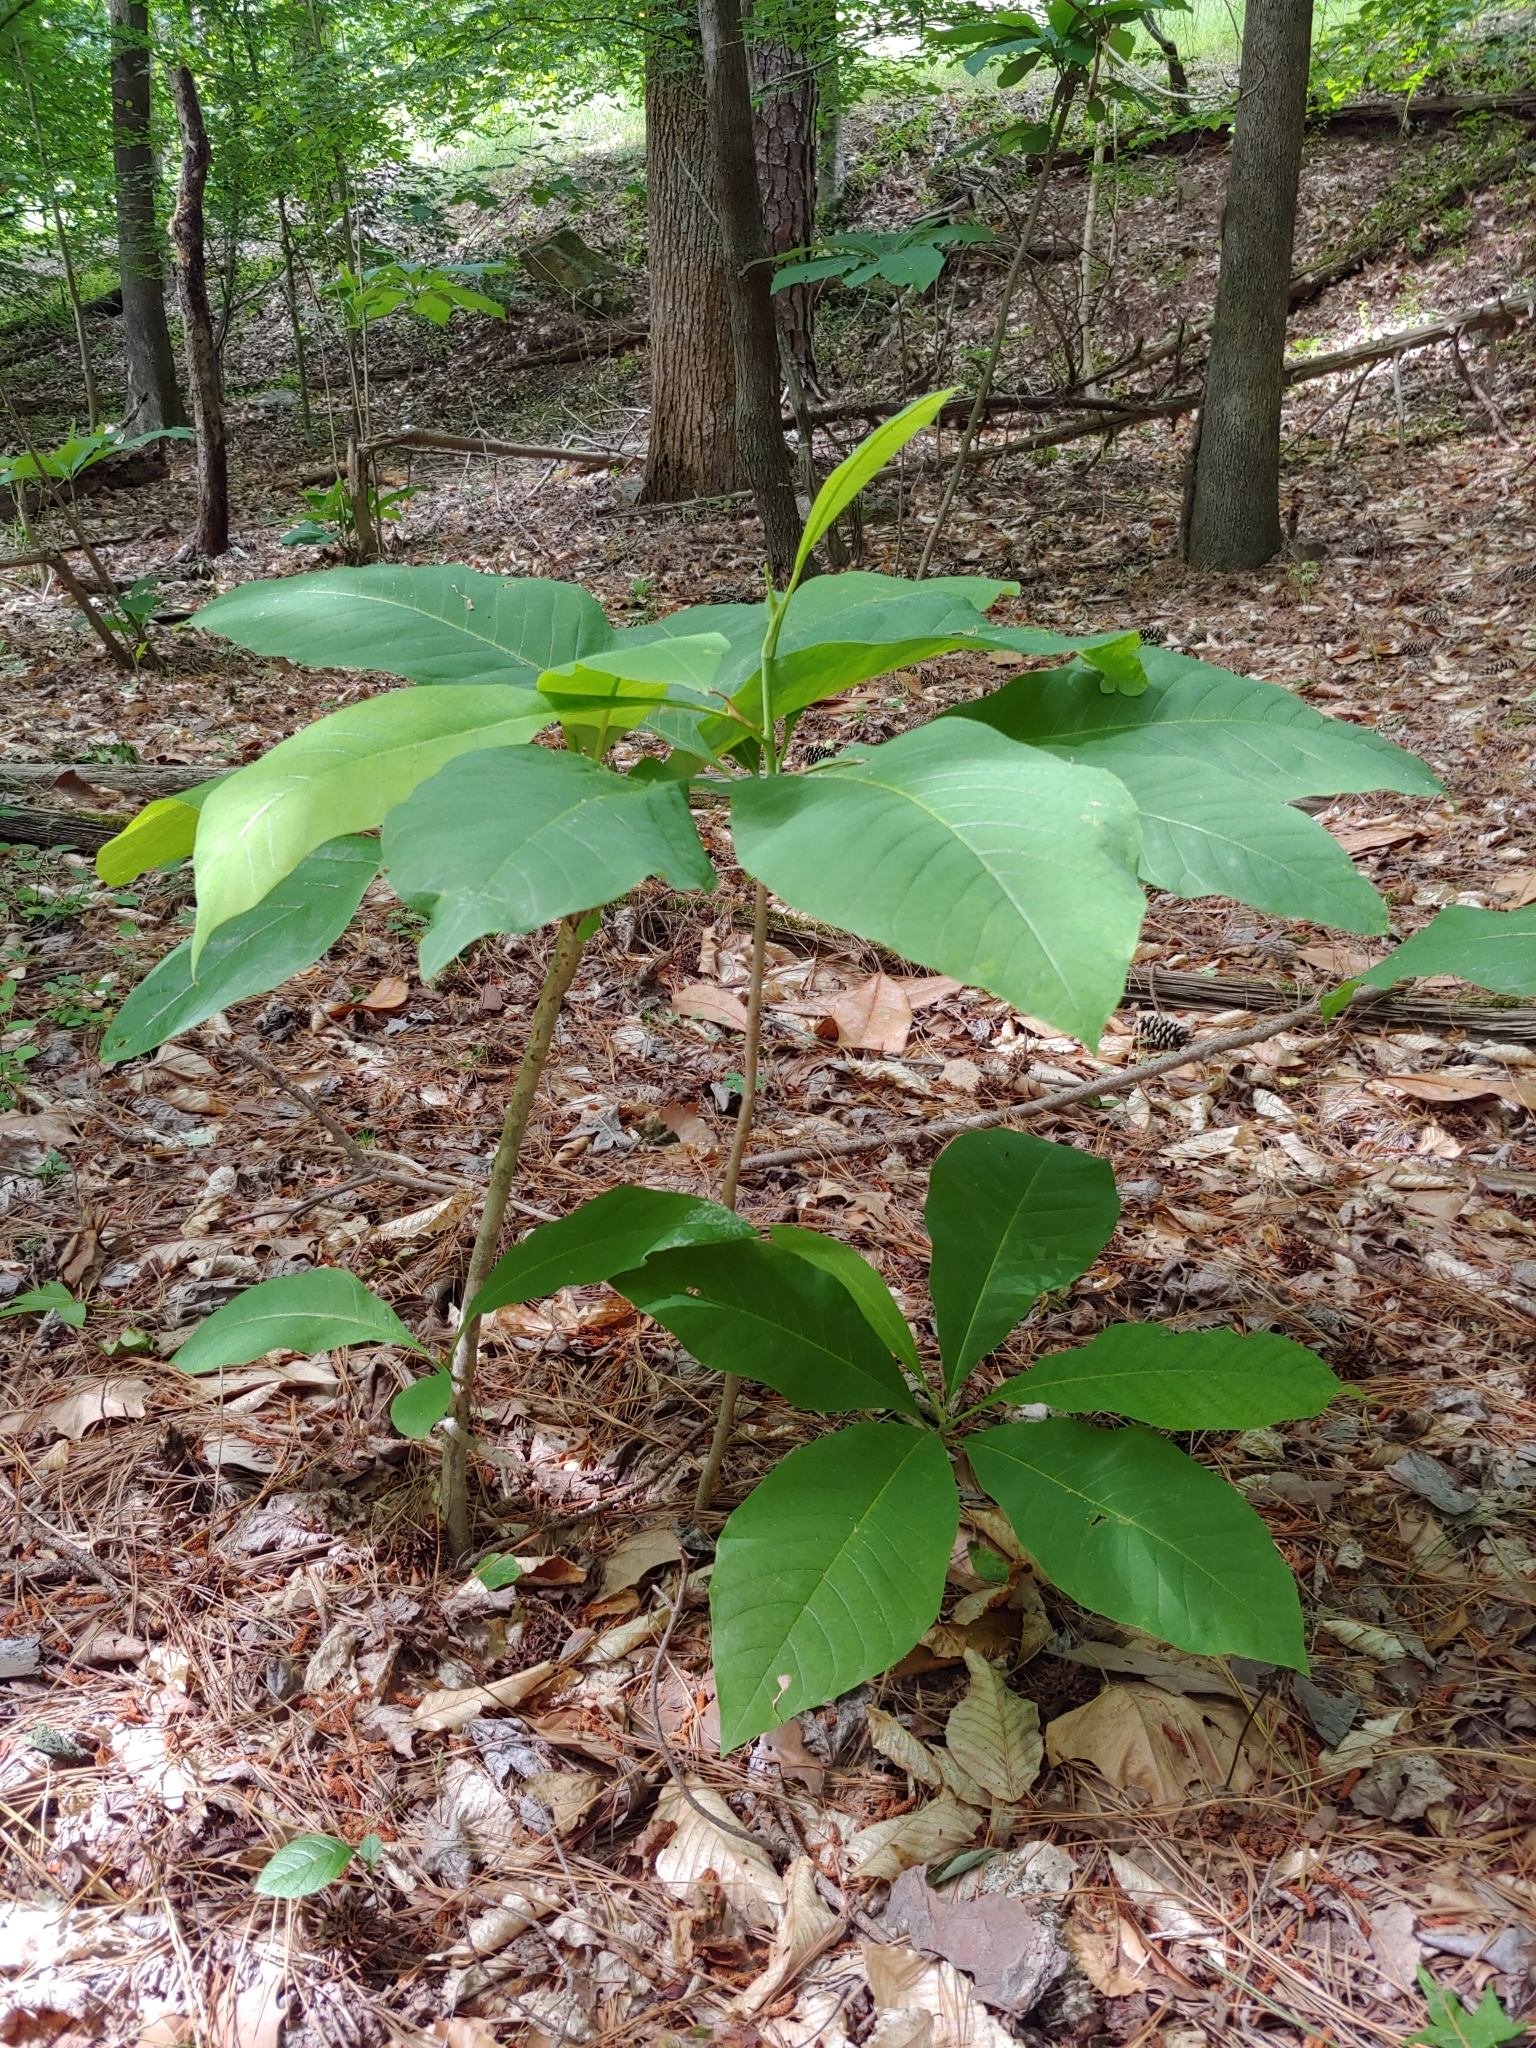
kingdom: Plantae
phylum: Tracheophyta
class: Magnoliopsida
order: Magnoliales
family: Magnoliaceae
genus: Magnolia
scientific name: Magnolia tripetala
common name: Umbrella magnolia
